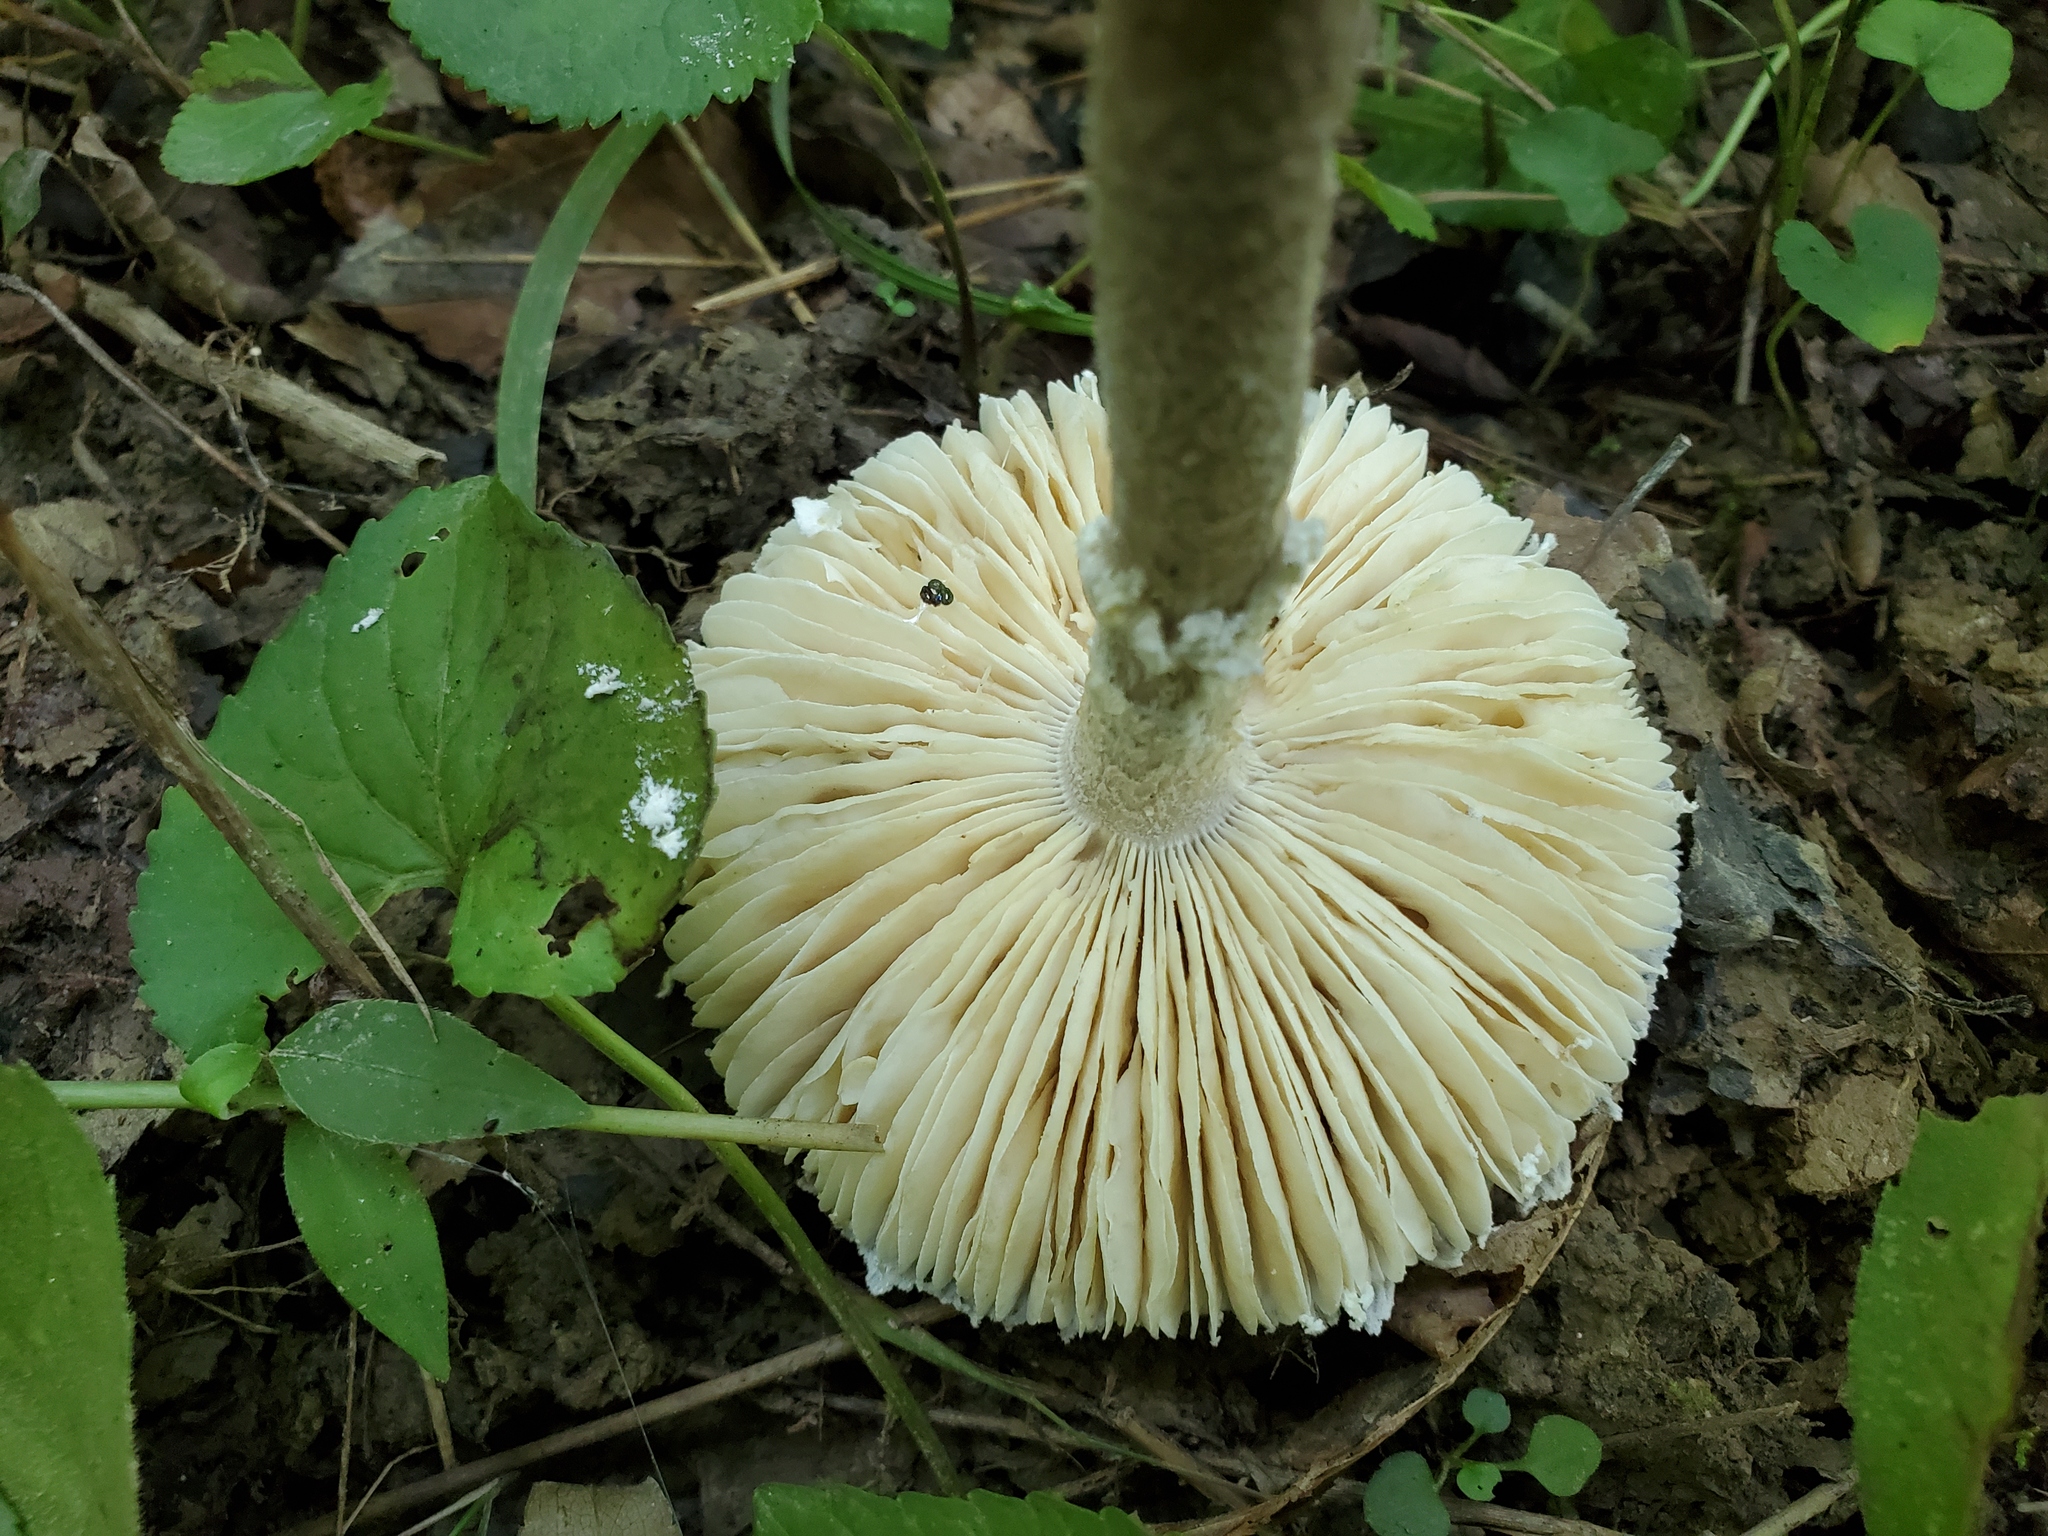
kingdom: Fungi
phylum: Basidiomycota
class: Agaricomycetes
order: Agaricales
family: Amanitaceae
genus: Amanita
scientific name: Amanita onusta
